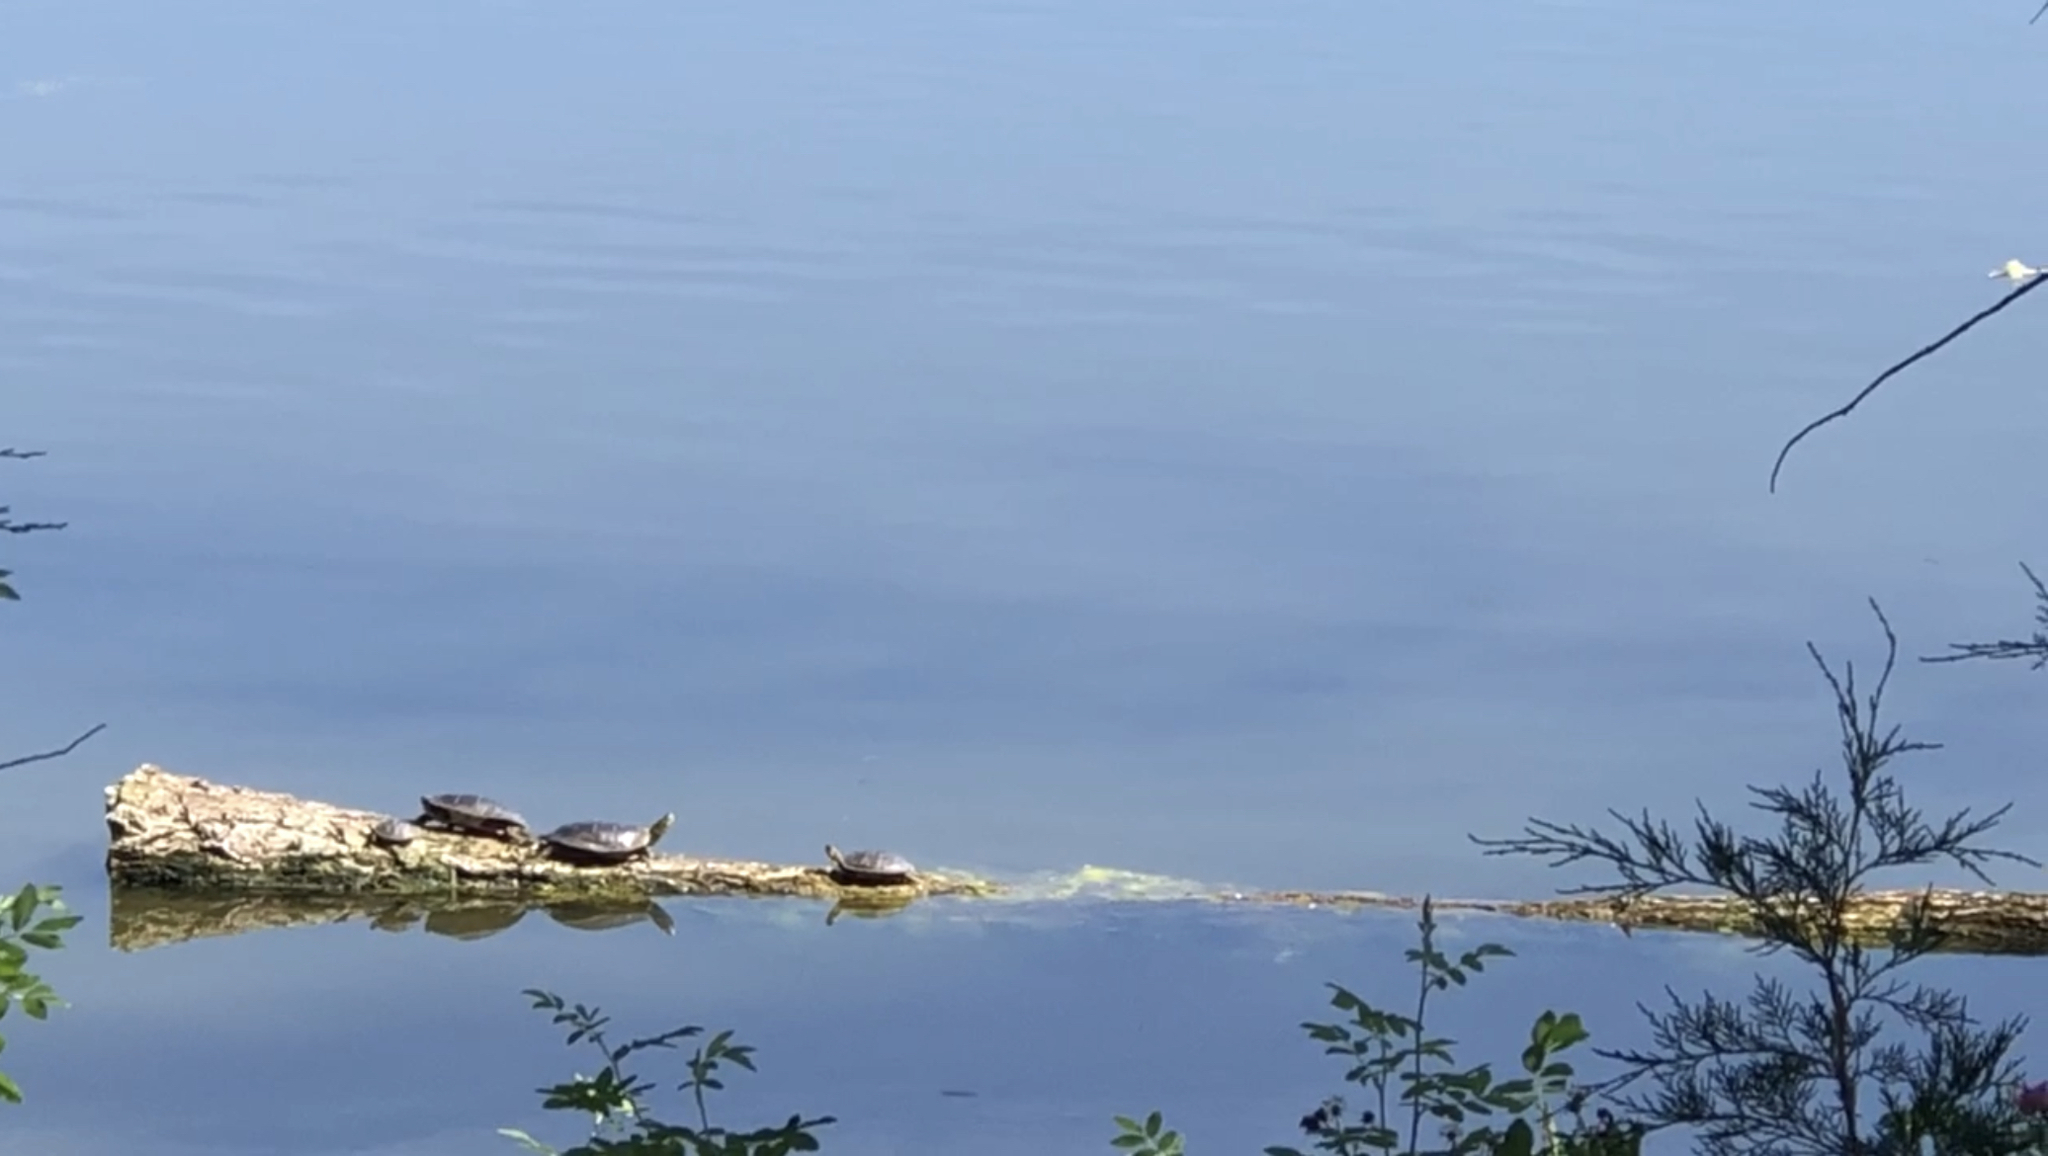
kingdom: Animalia
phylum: Chordata
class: Testudines
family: Emydidae
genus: Chrysemys
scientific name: Chrysemys picta
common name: Painted turtle
